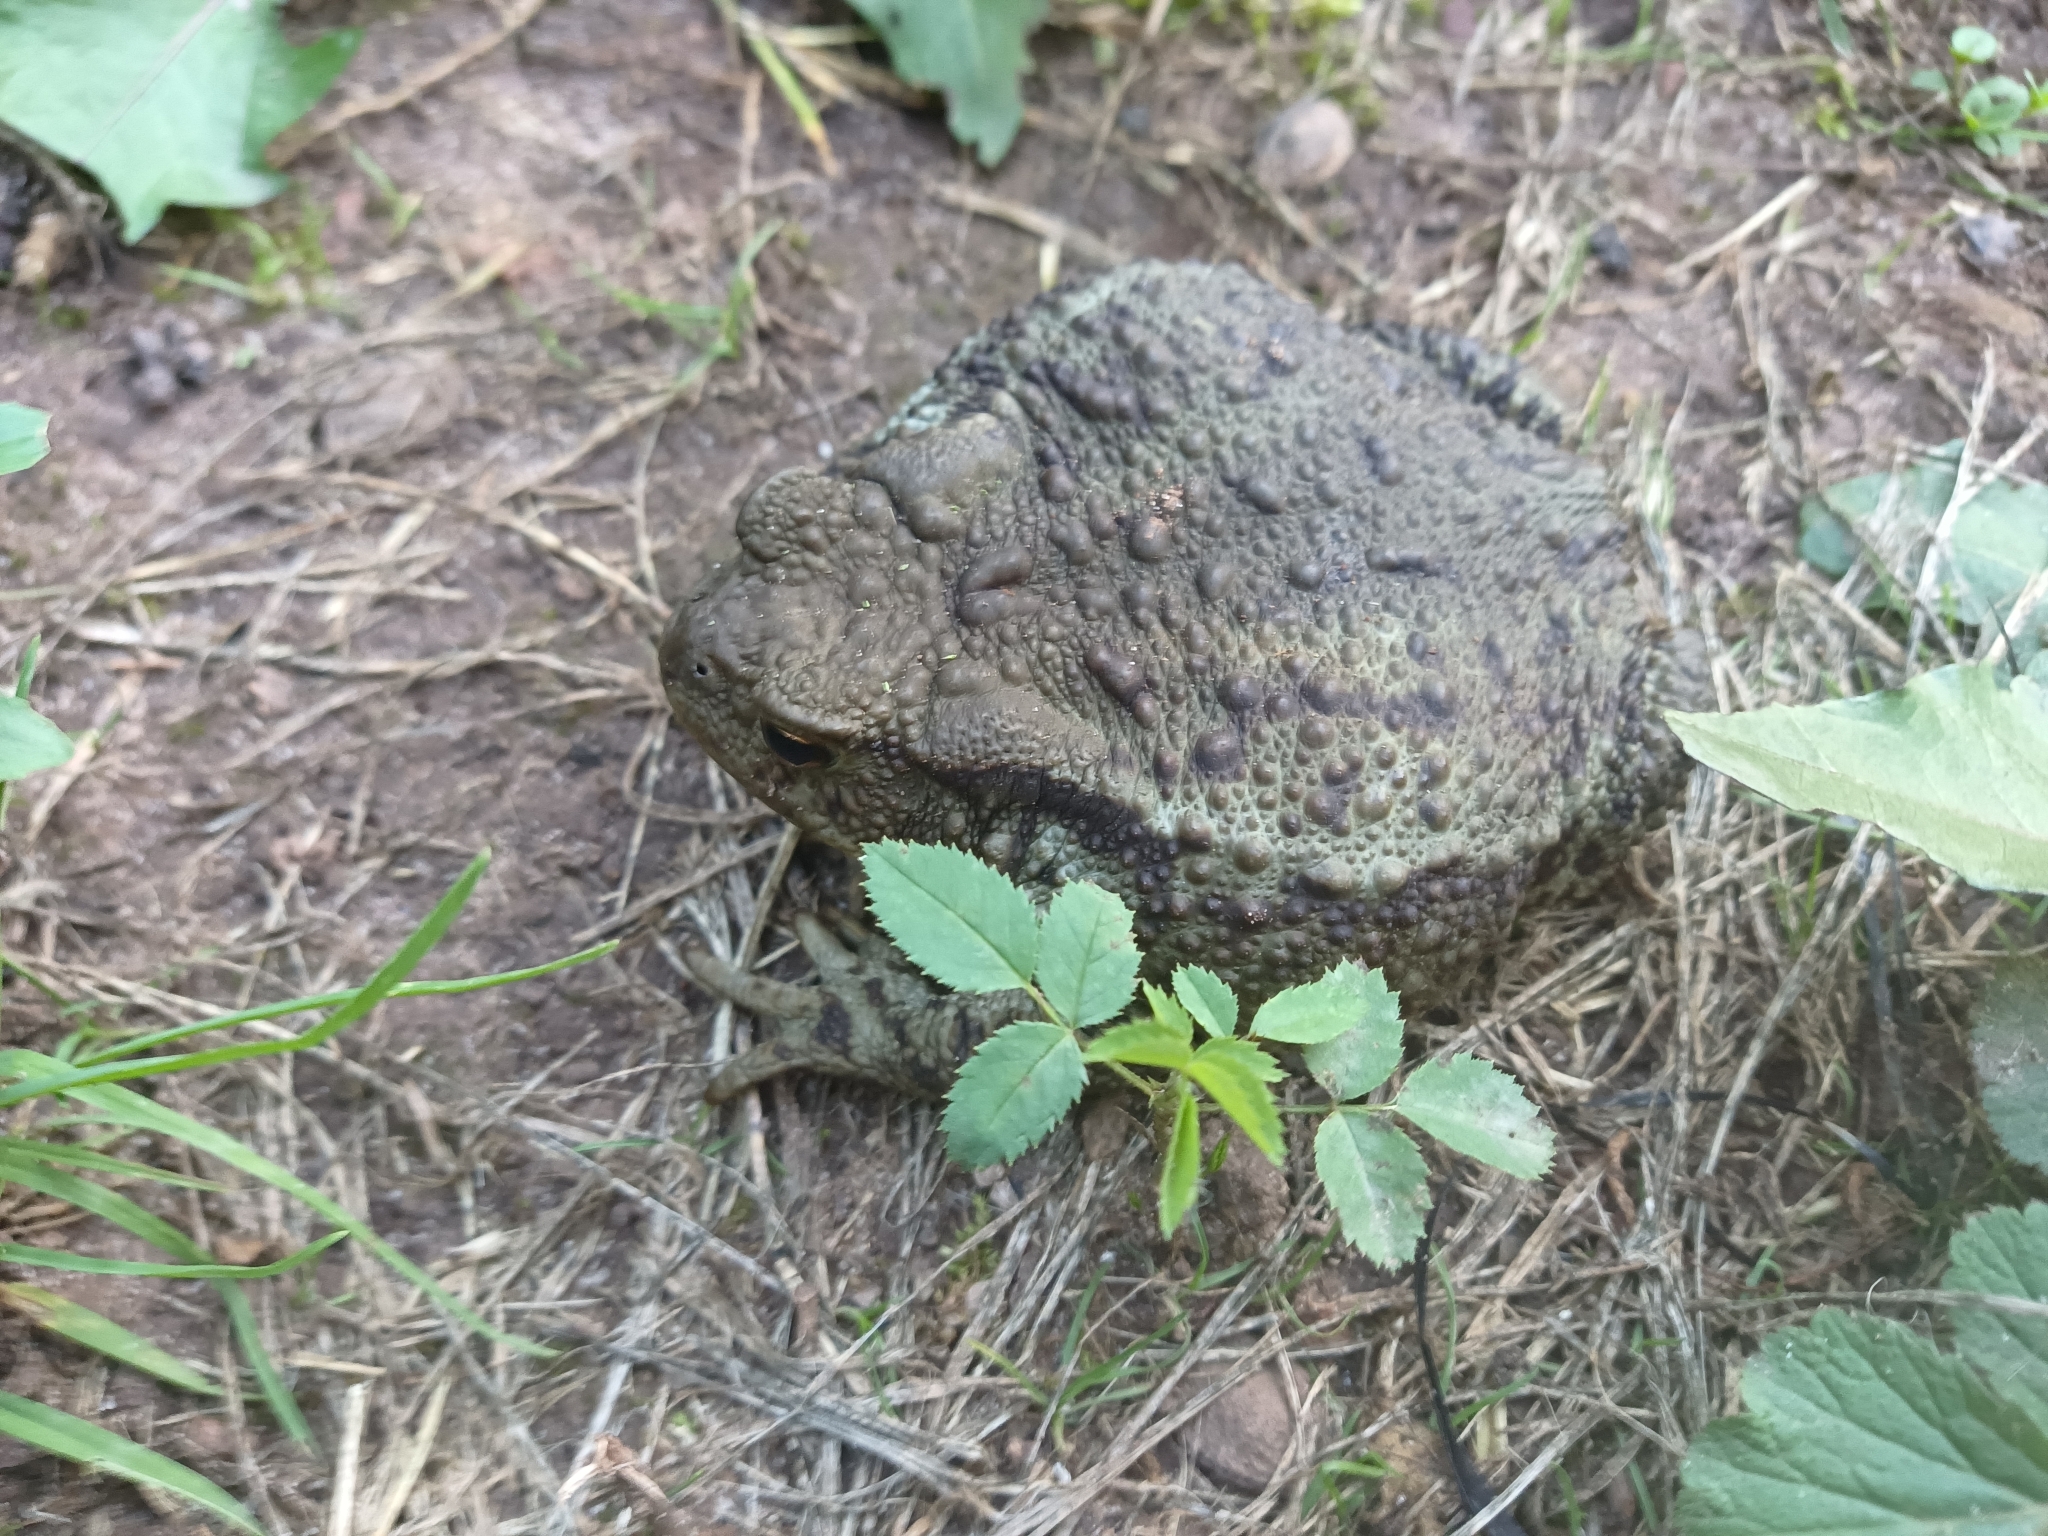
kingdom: Animalia
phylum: Chordata
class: Amphibia
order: Anura
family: Bufonidae
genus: Bufo
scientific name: Bufo bufo
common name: Common toad
